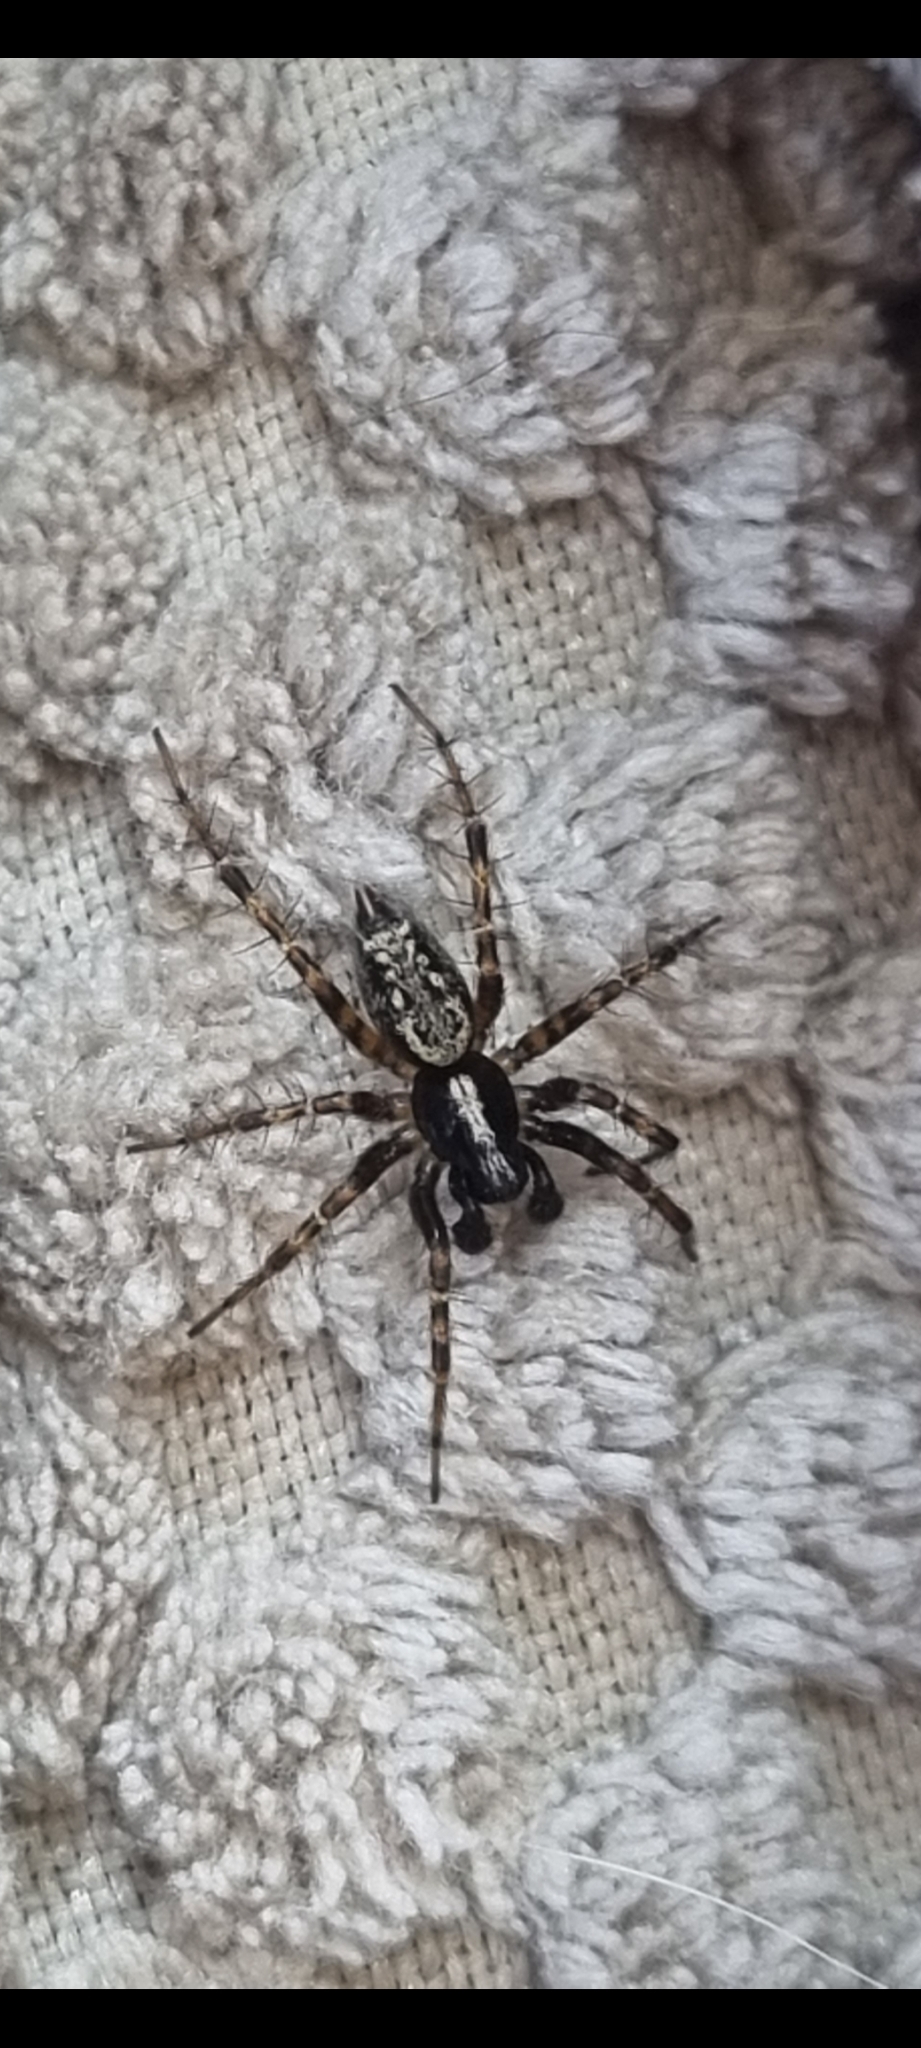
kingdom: Animalia
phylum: Arthropoda
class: Arachnida
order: Araneae
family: Agelenidae
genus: Textrix
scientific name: Textrix denticulata
